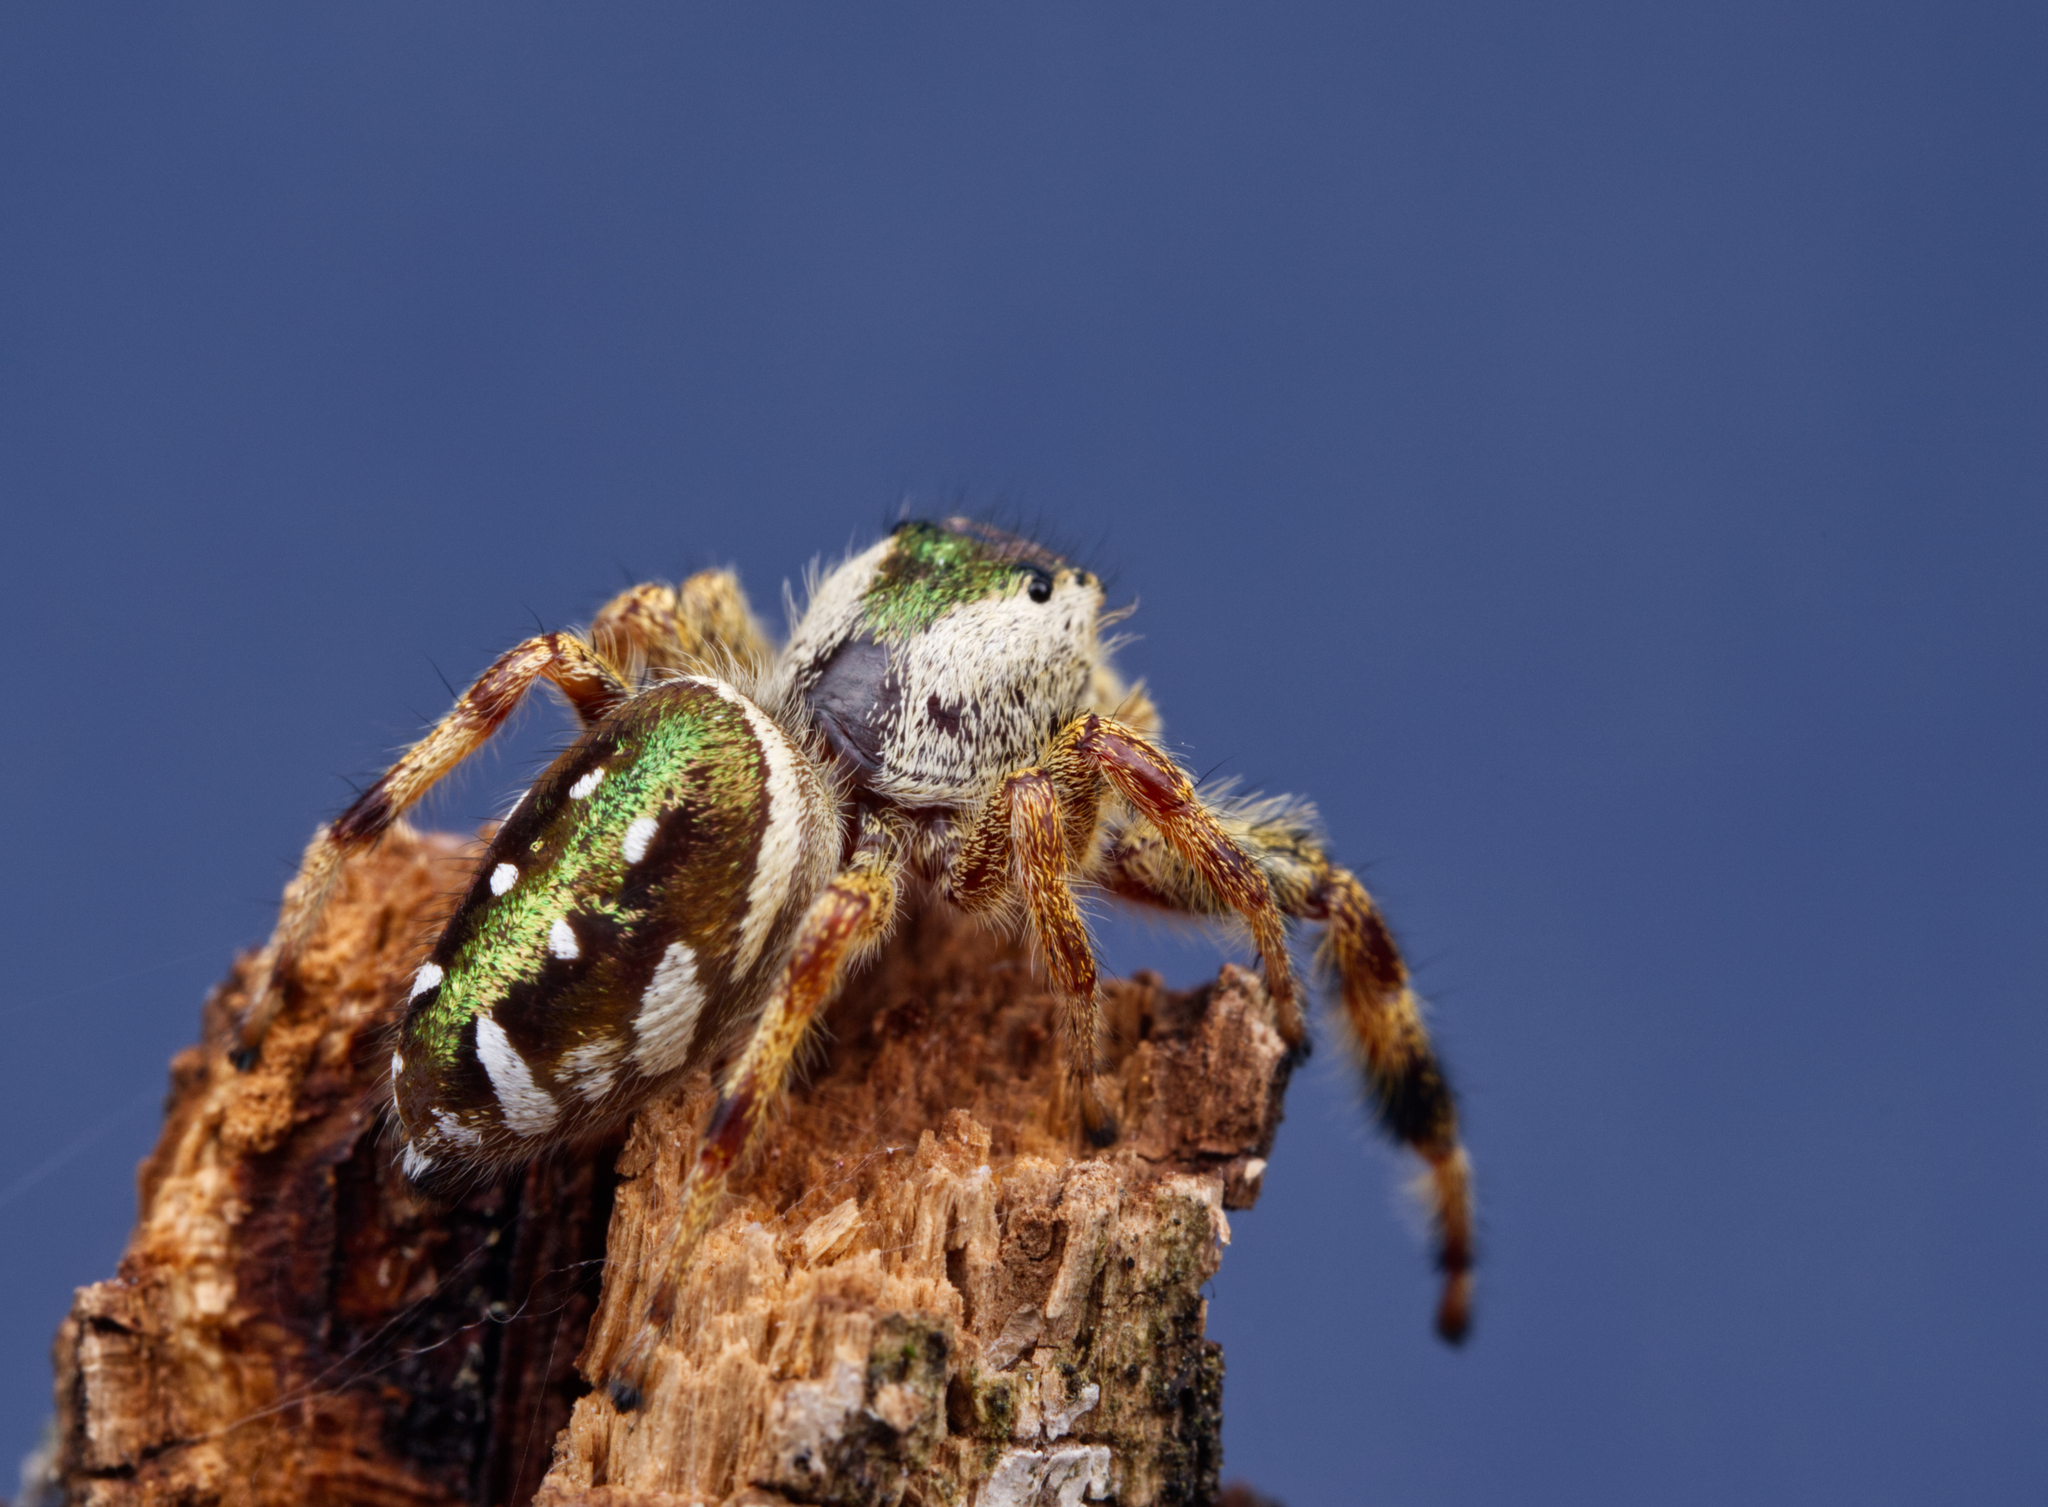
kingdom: Animalia
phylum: Arthropoda
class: Arachnida
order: Araneae
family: Salticidae
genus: Paraphidippus
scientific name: Paraphidippus aurantius
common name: Jumping spiders
